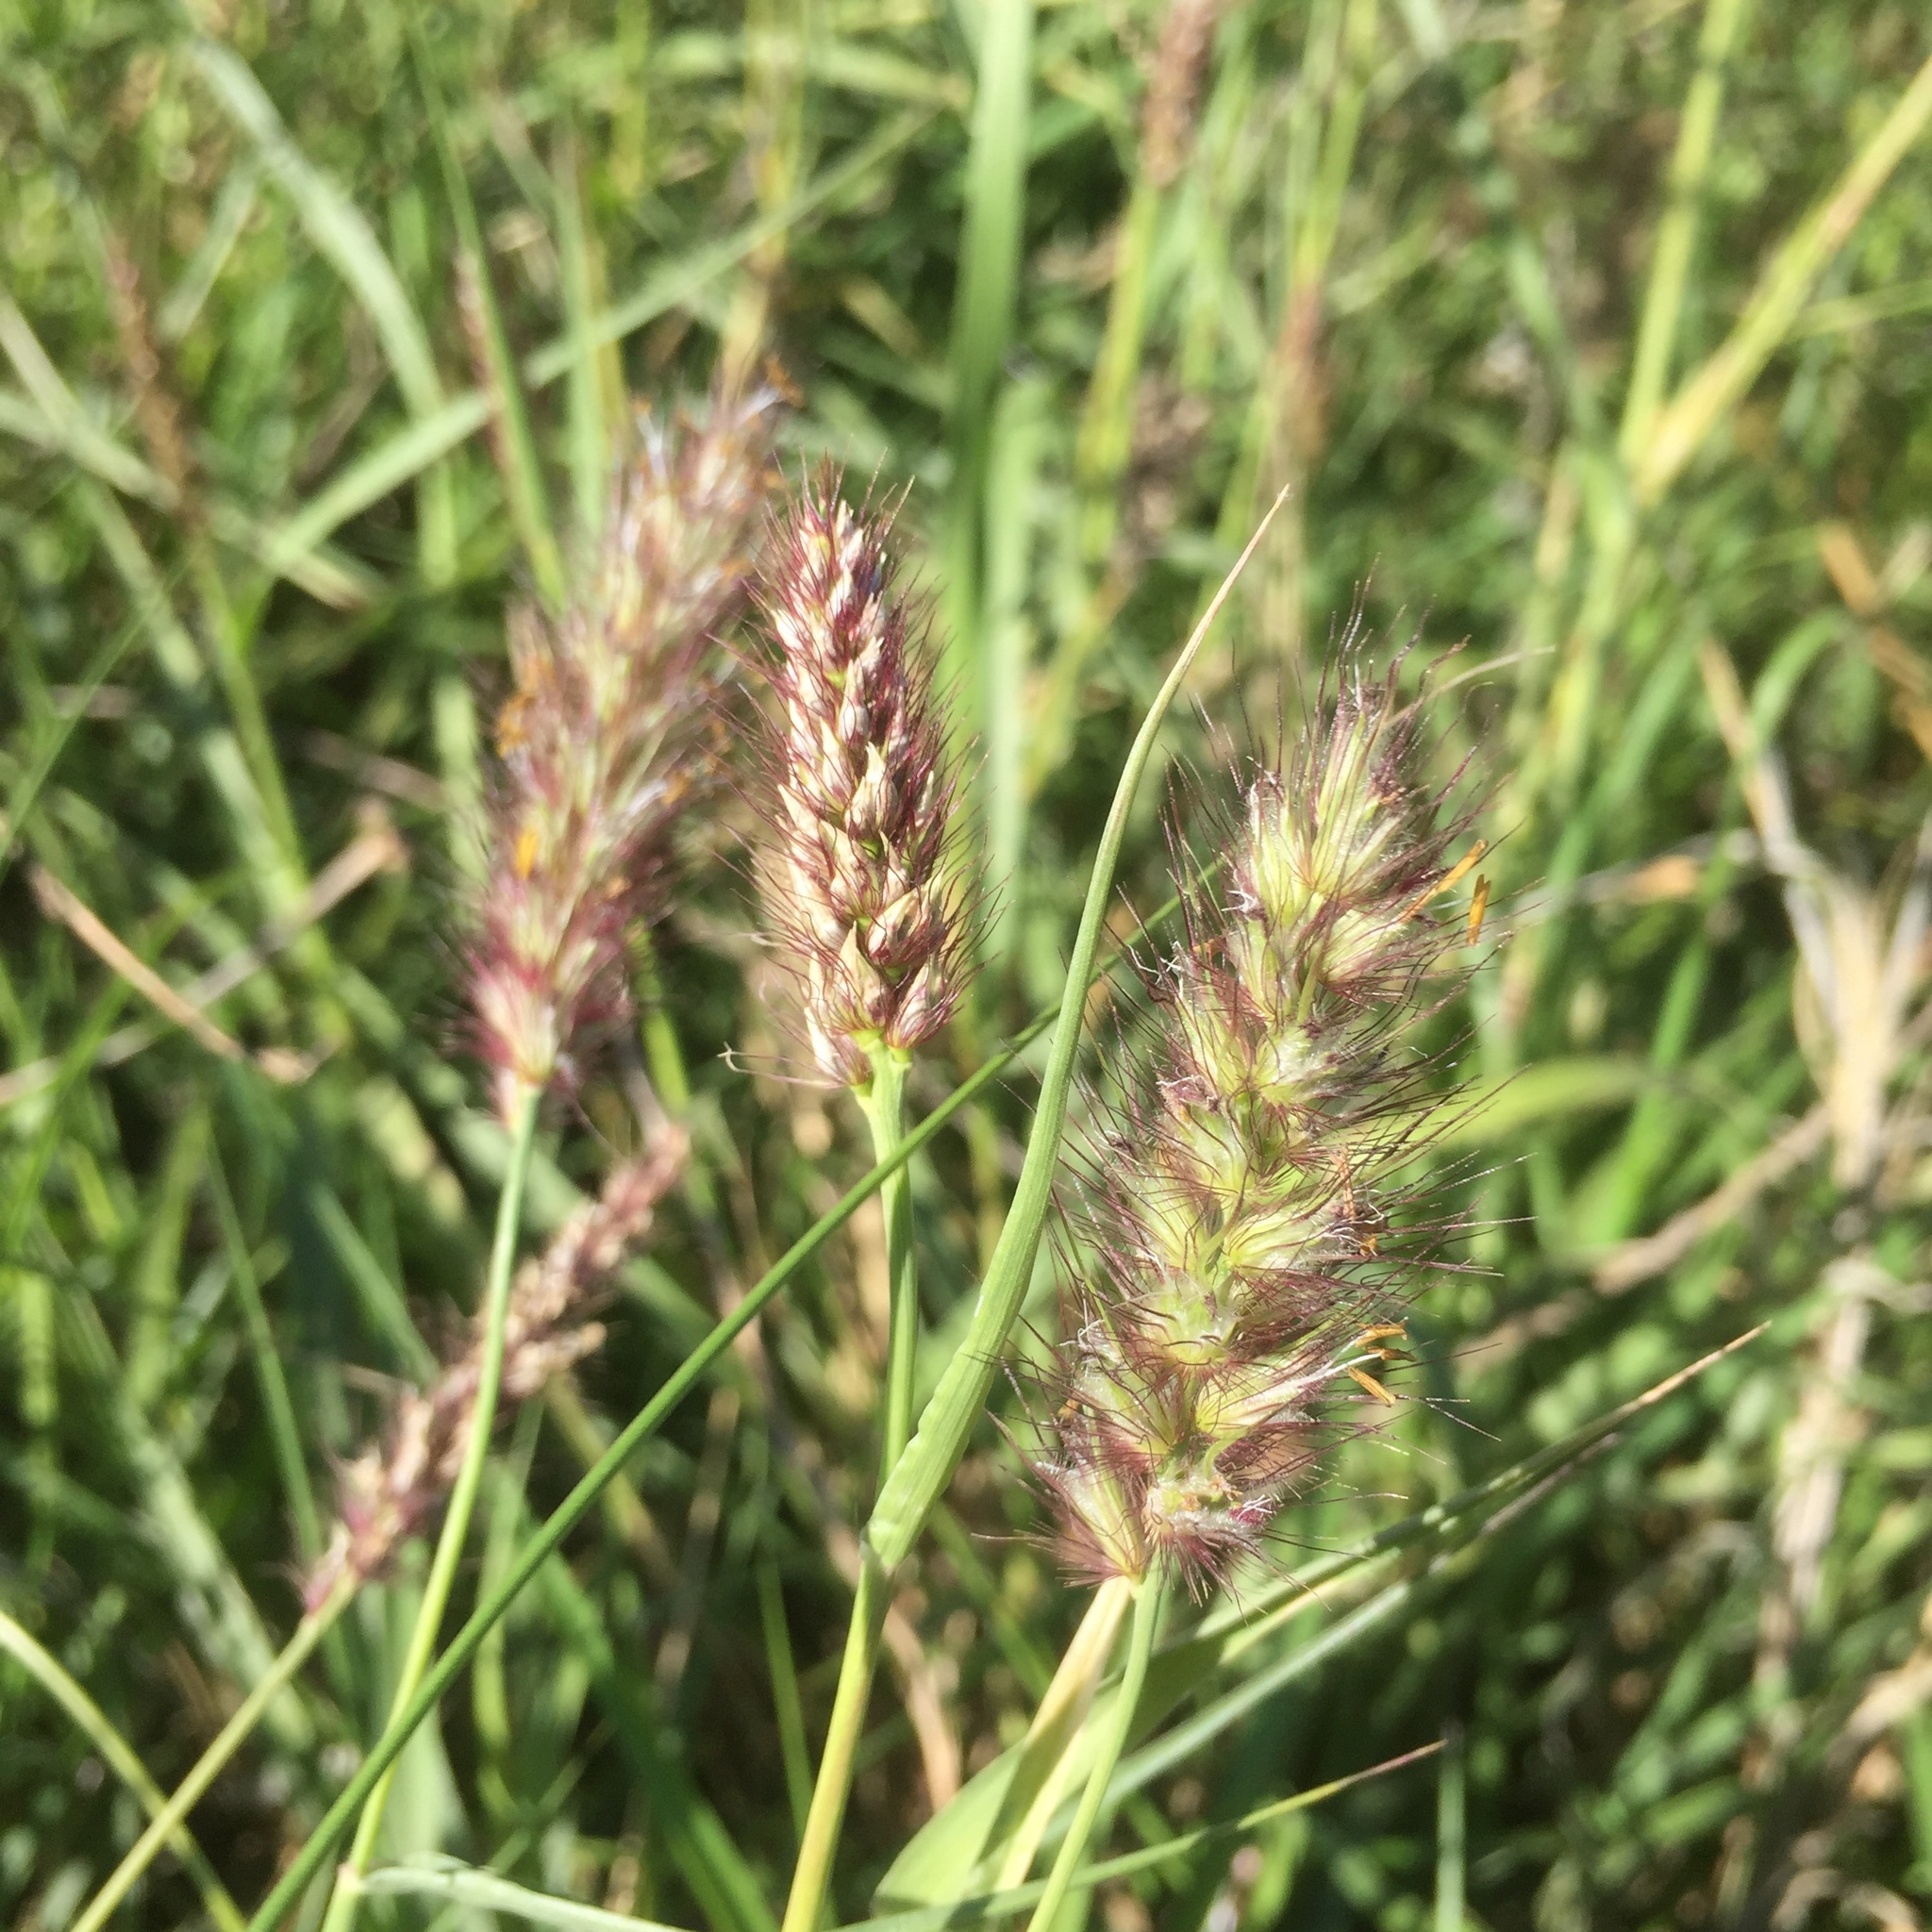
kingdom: Plantae
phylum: Tracheophyta
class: Liliopsida
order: Poales
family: Poaceae
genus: Cenchrus
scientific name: Cenchrus ciliaris
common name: Buffelgrass
